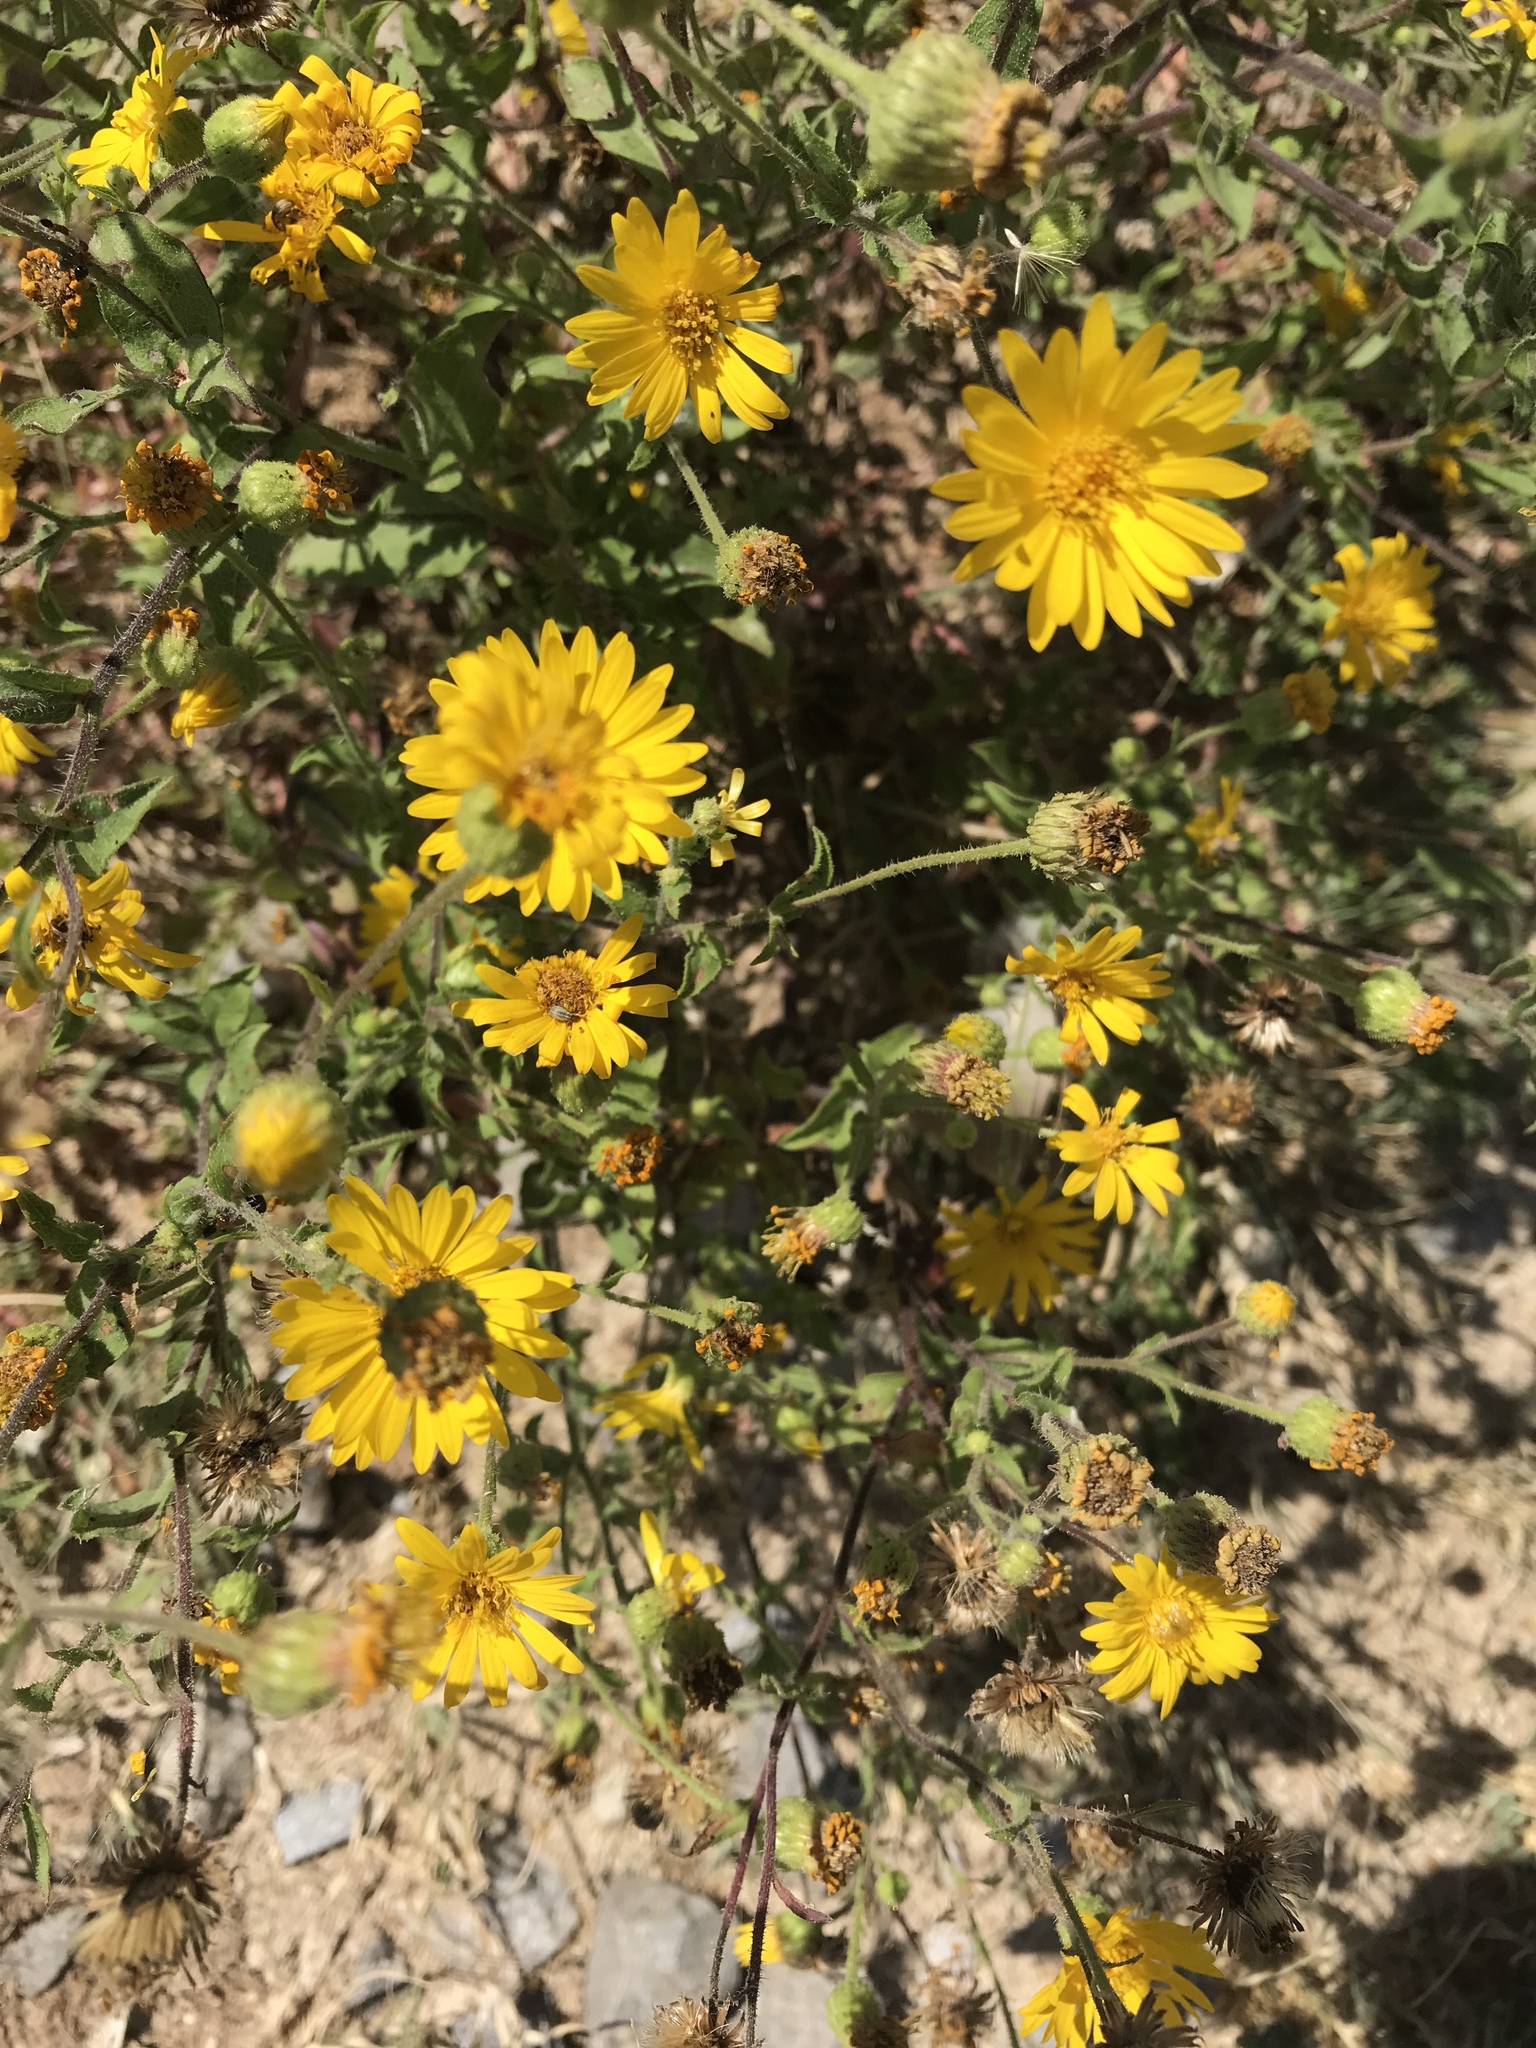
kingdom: Plantae
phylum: Tracheophyta
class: Magnoliopsida
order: Asterales
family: Asteraceae
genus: Heterotheca
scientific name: Heterotheca subaxillaris
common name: Camphorweed
